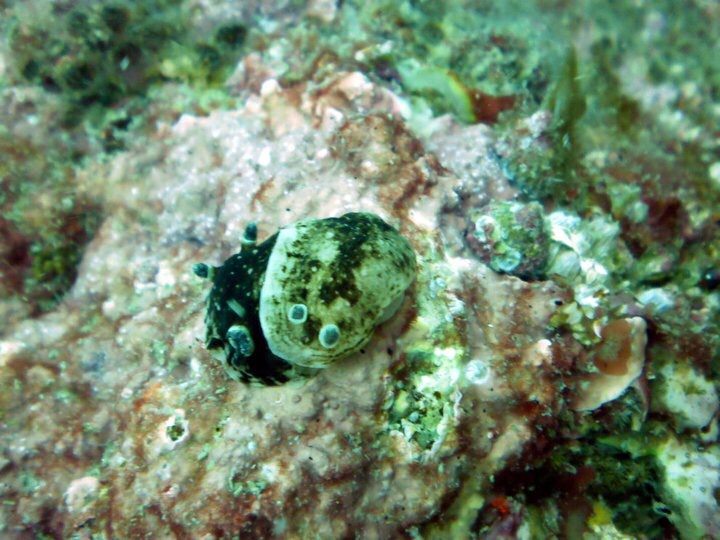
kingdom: Animalia
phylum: Mollusca
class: Gastropoda
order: Nudibranchia
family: Dorididae
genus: Aphelodoris
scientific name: Aphelodoris luctuosa
